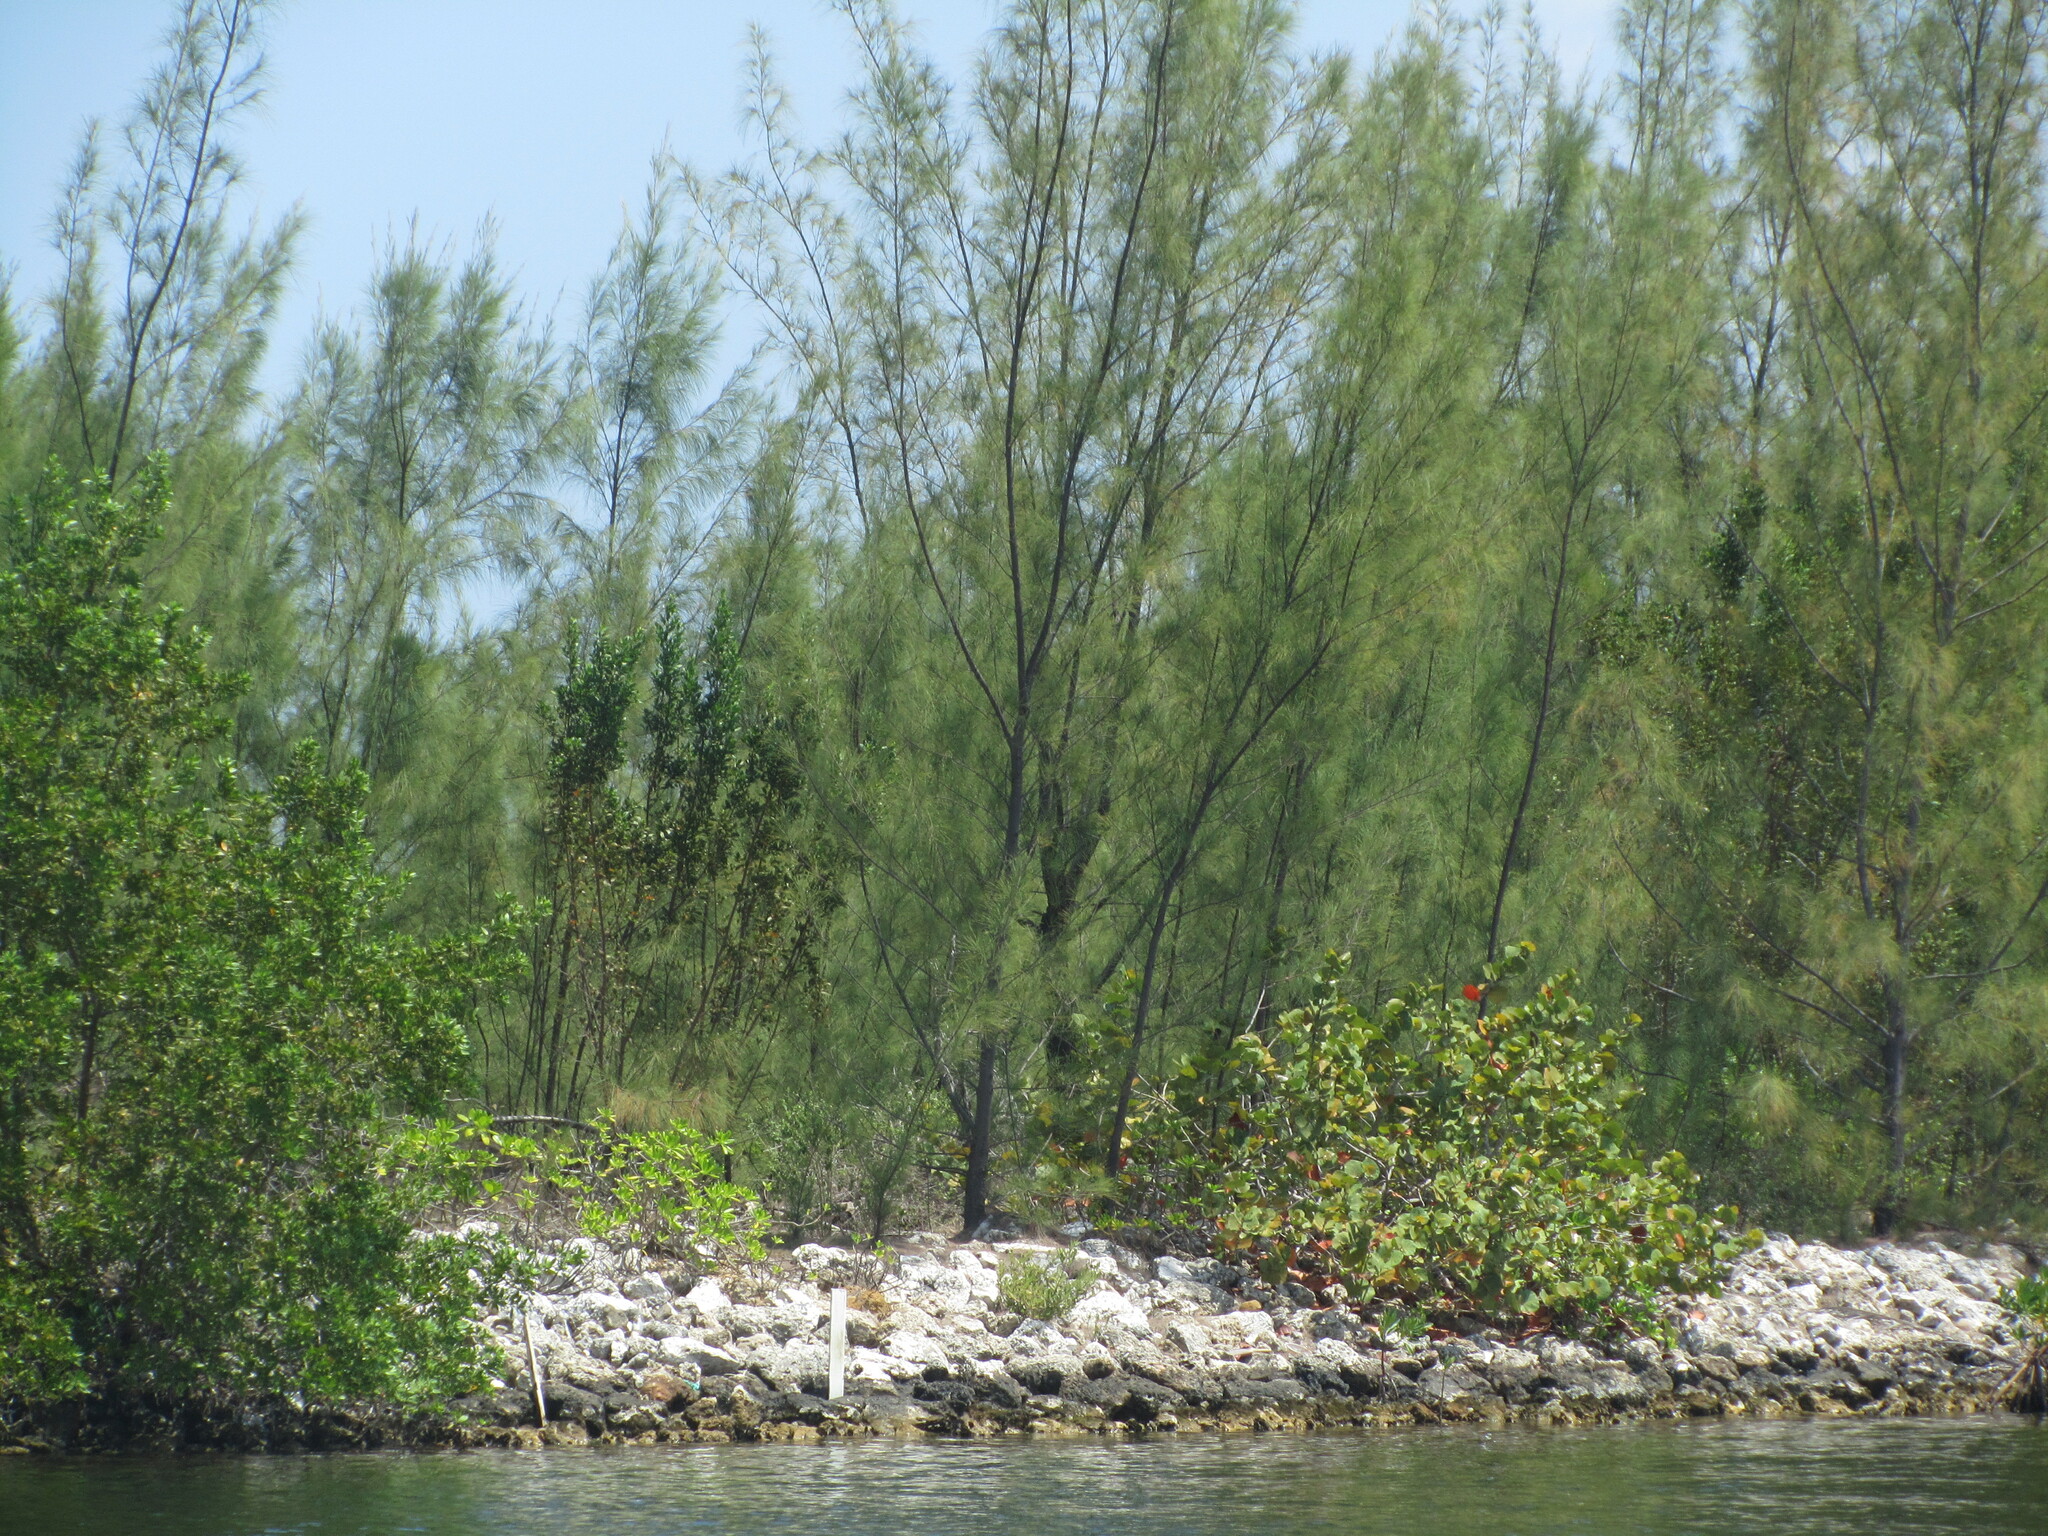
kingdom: Plantae
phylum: Tracheophyta
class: Magnoliopsida
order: Fagales
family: Casuarinaceae
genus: Casuarina
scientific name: Casuarina equisetifolia
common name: Beach sheoak
